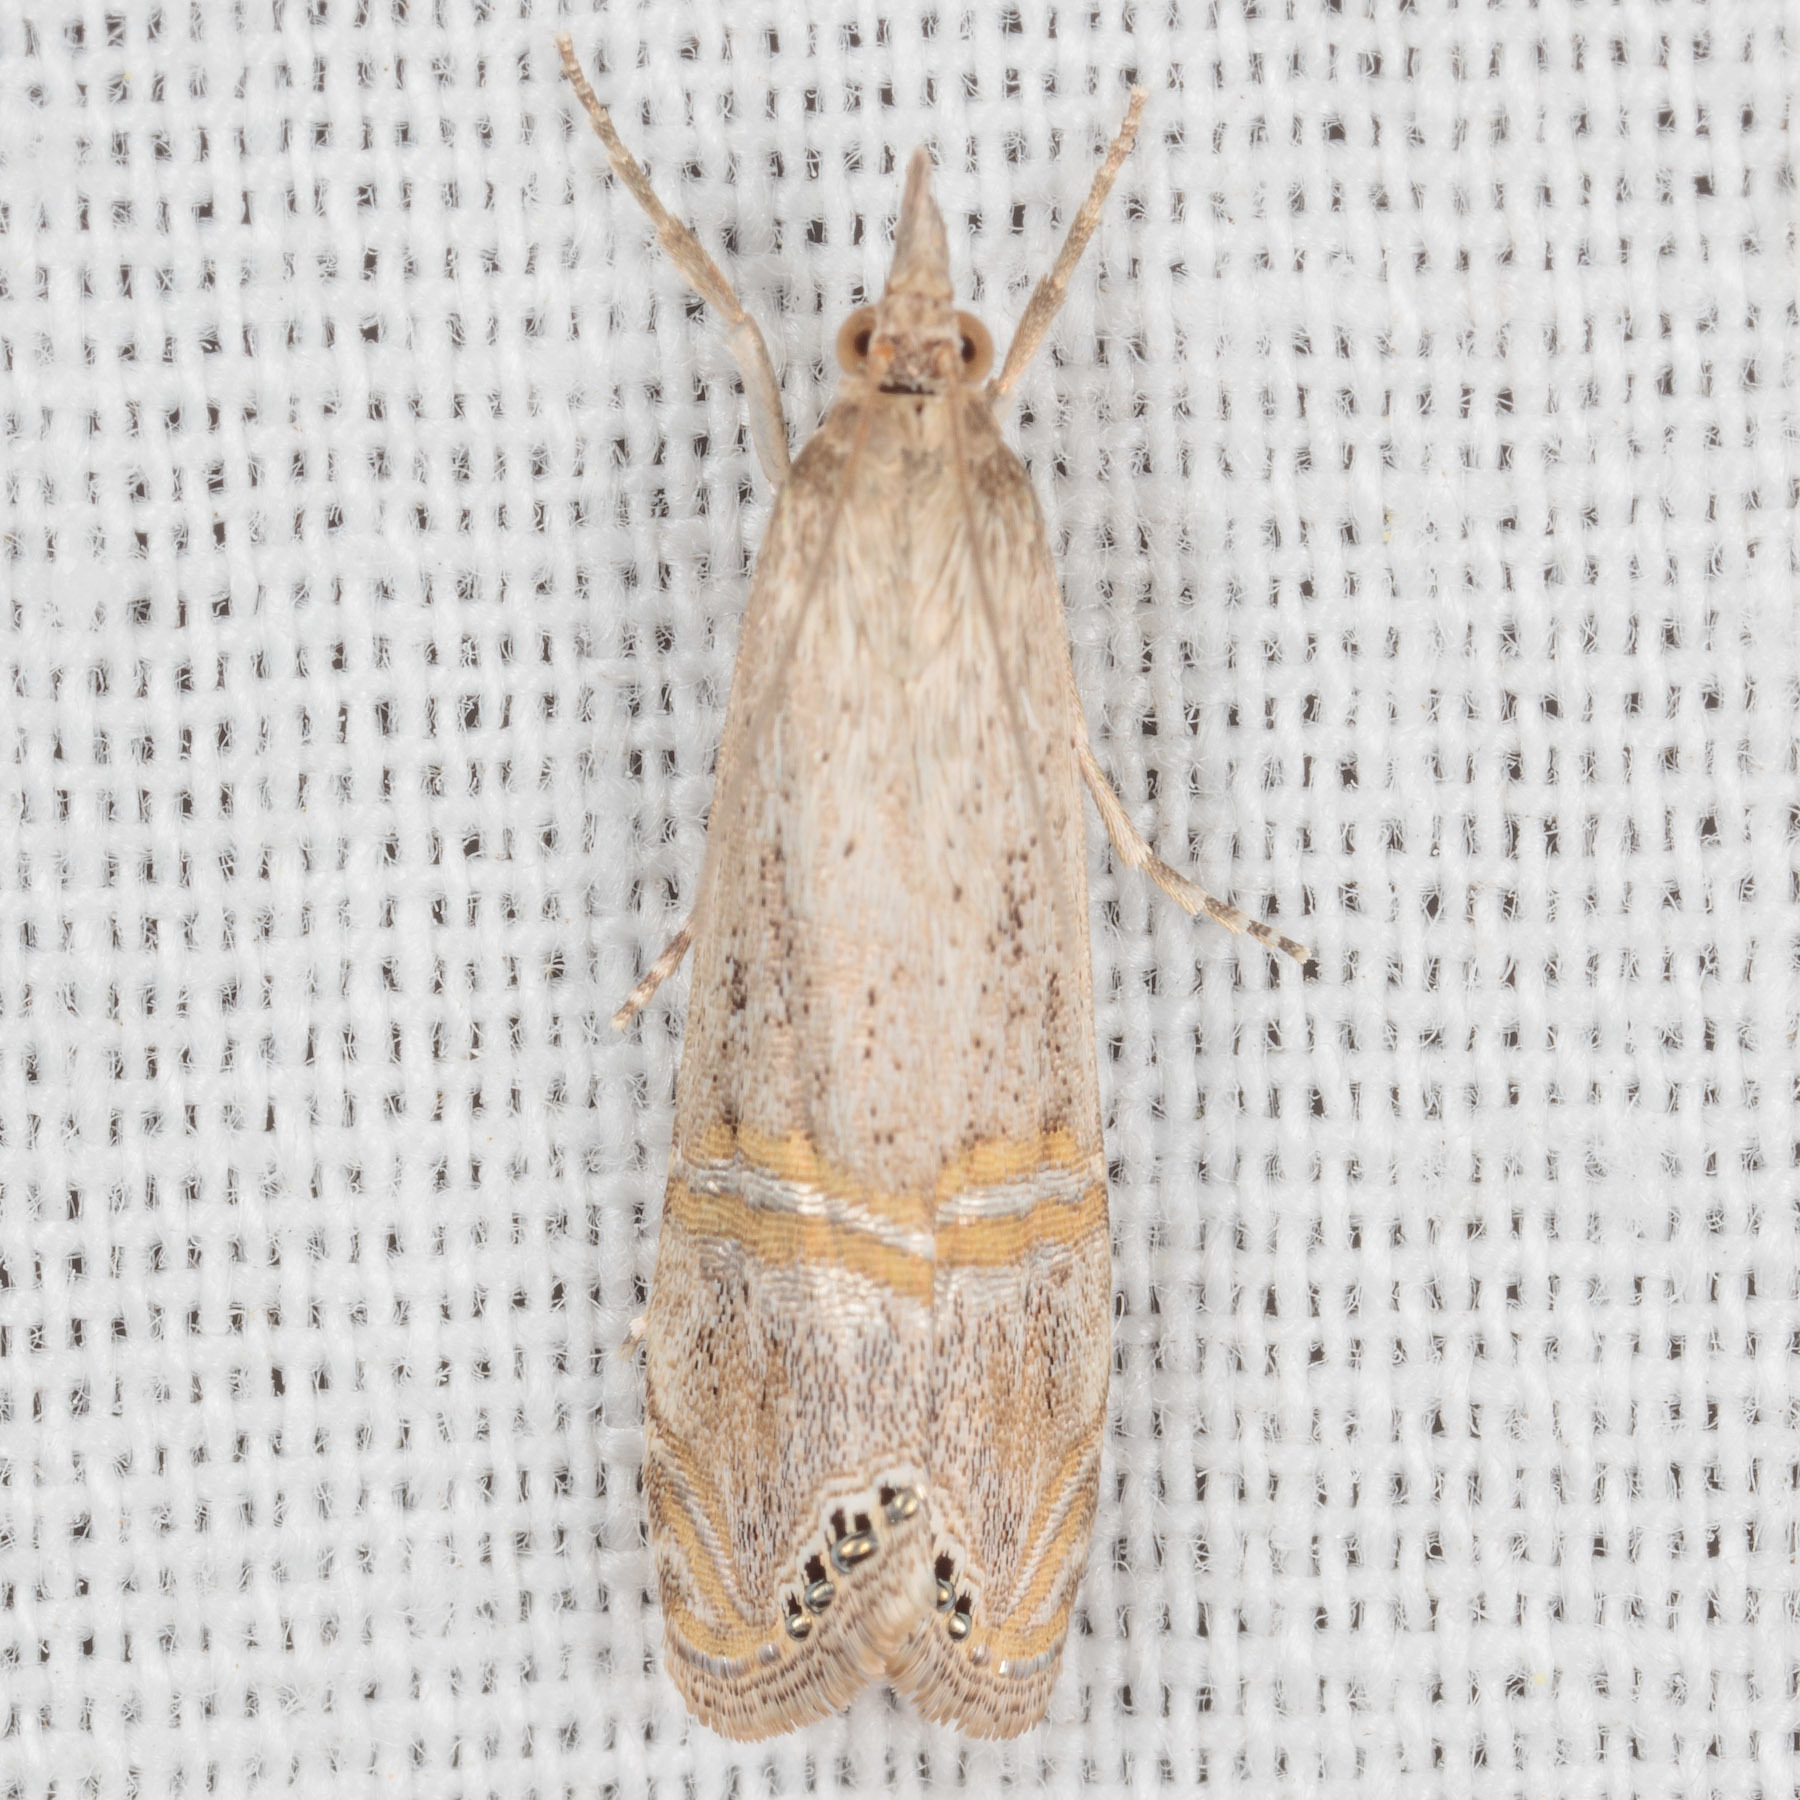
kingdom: Animalia
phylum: Arthropoda
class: Insecta
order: Lepidoptera
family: Crambidae
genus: Euchromius
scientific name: Euchromius ocellea
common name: Necklace veneer moth
